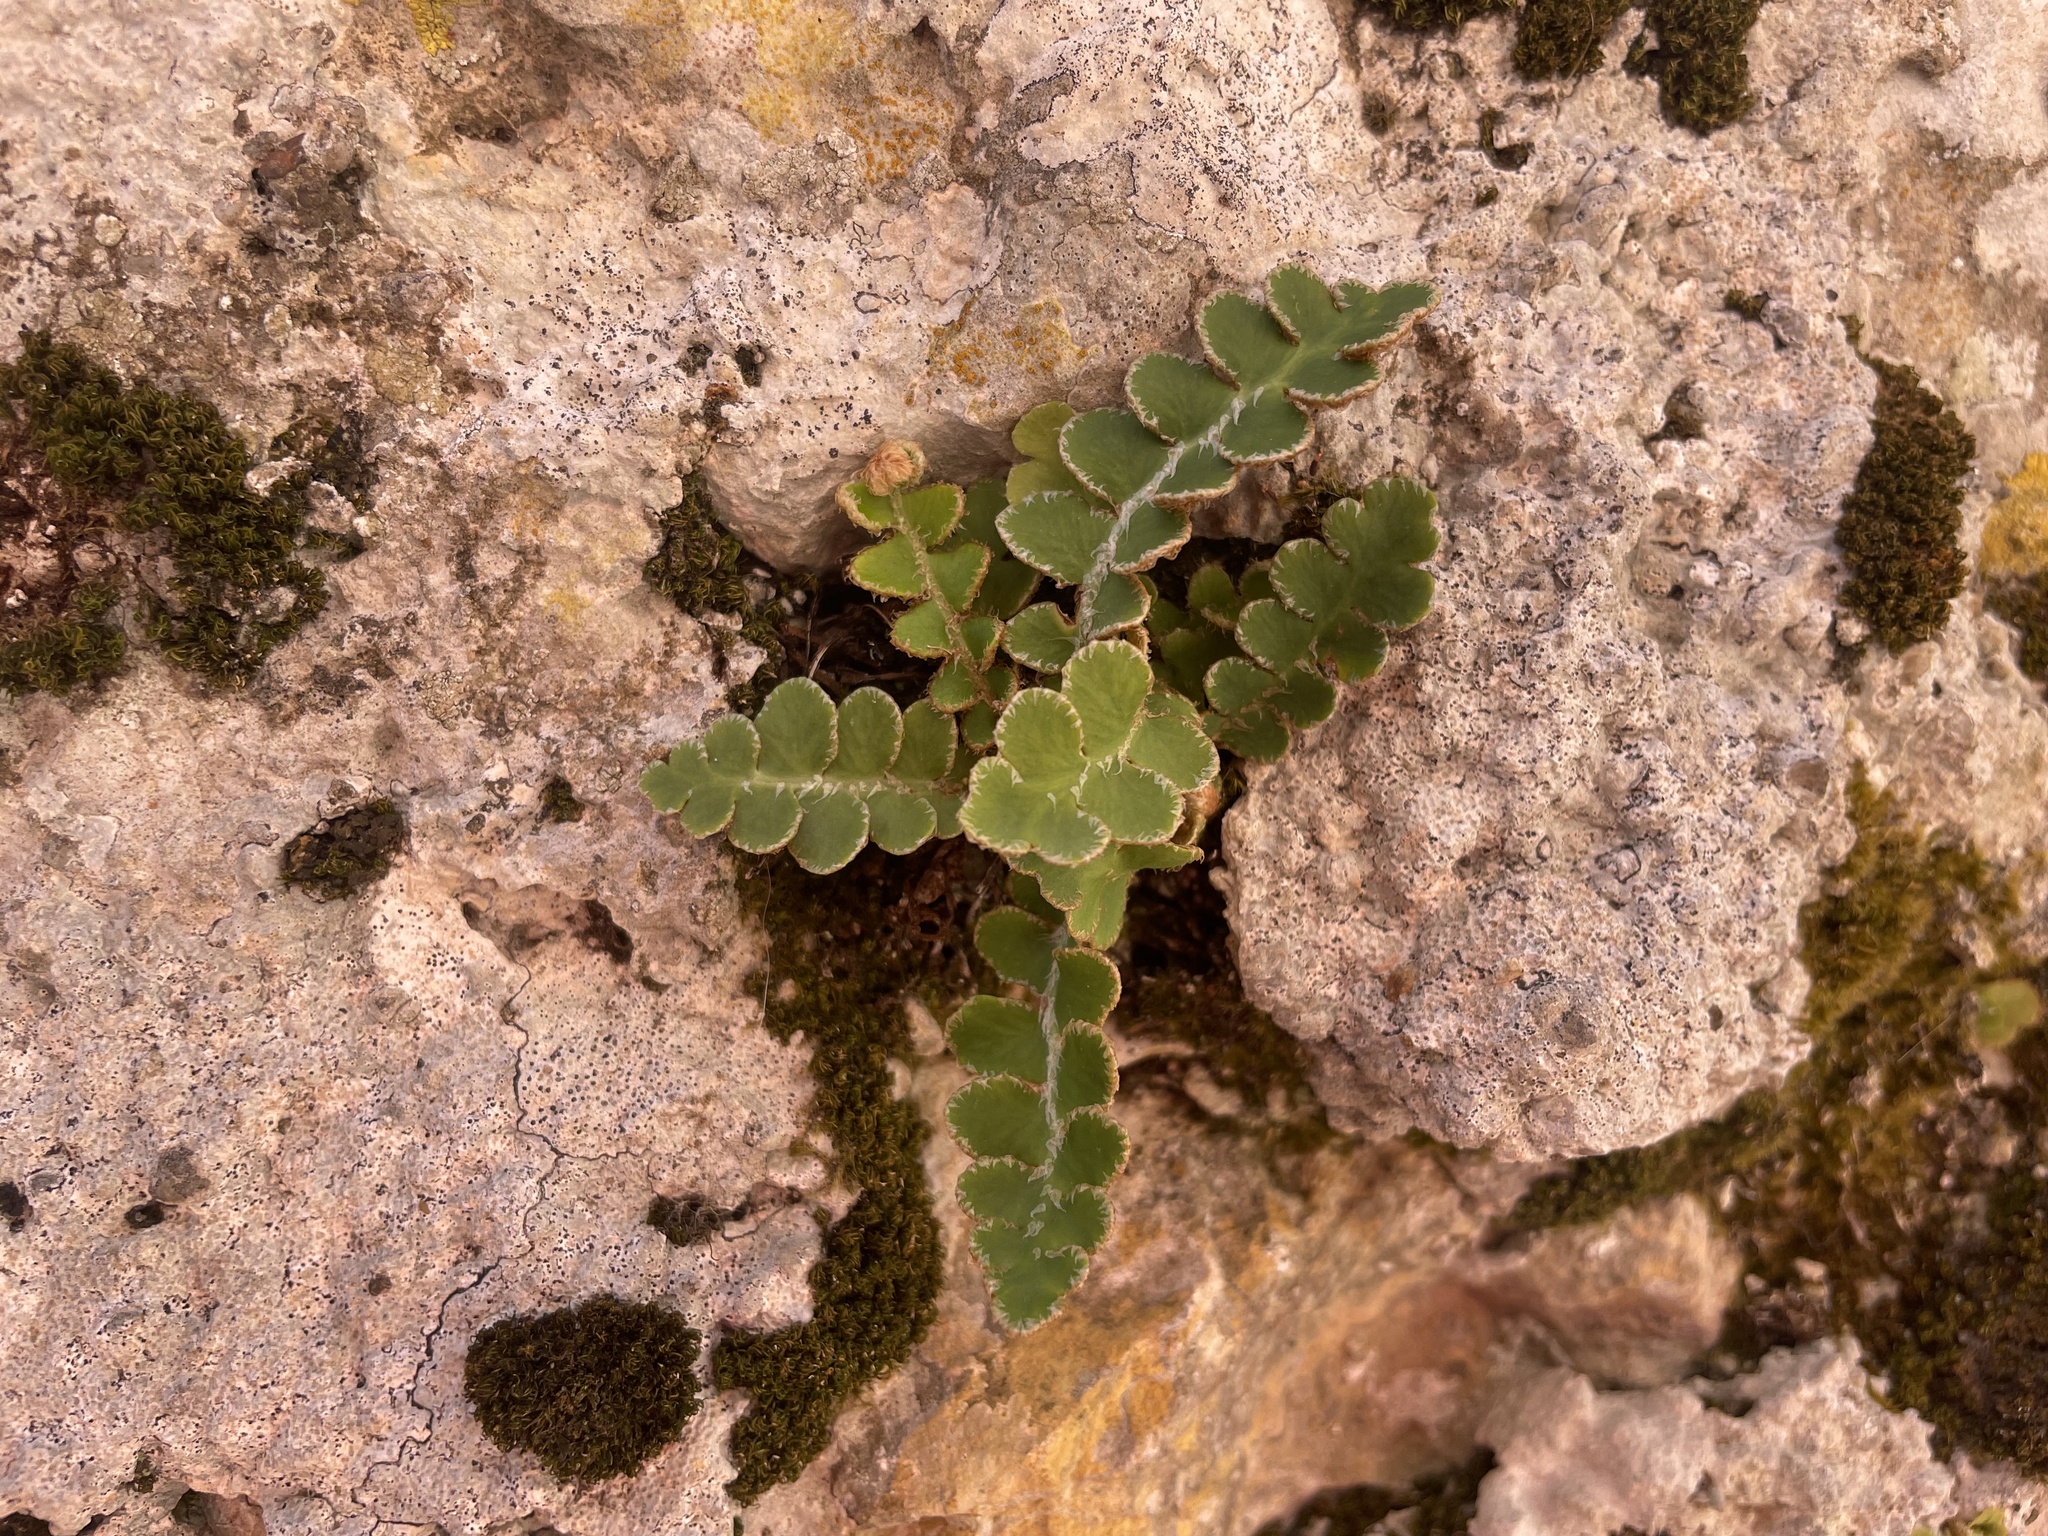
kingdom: Plantae
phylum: Tracheophyta
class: Polypodiopsida
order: Polypodiales
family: Aspleniaceae
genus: Asplenium
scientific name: Asplenium ceterach
